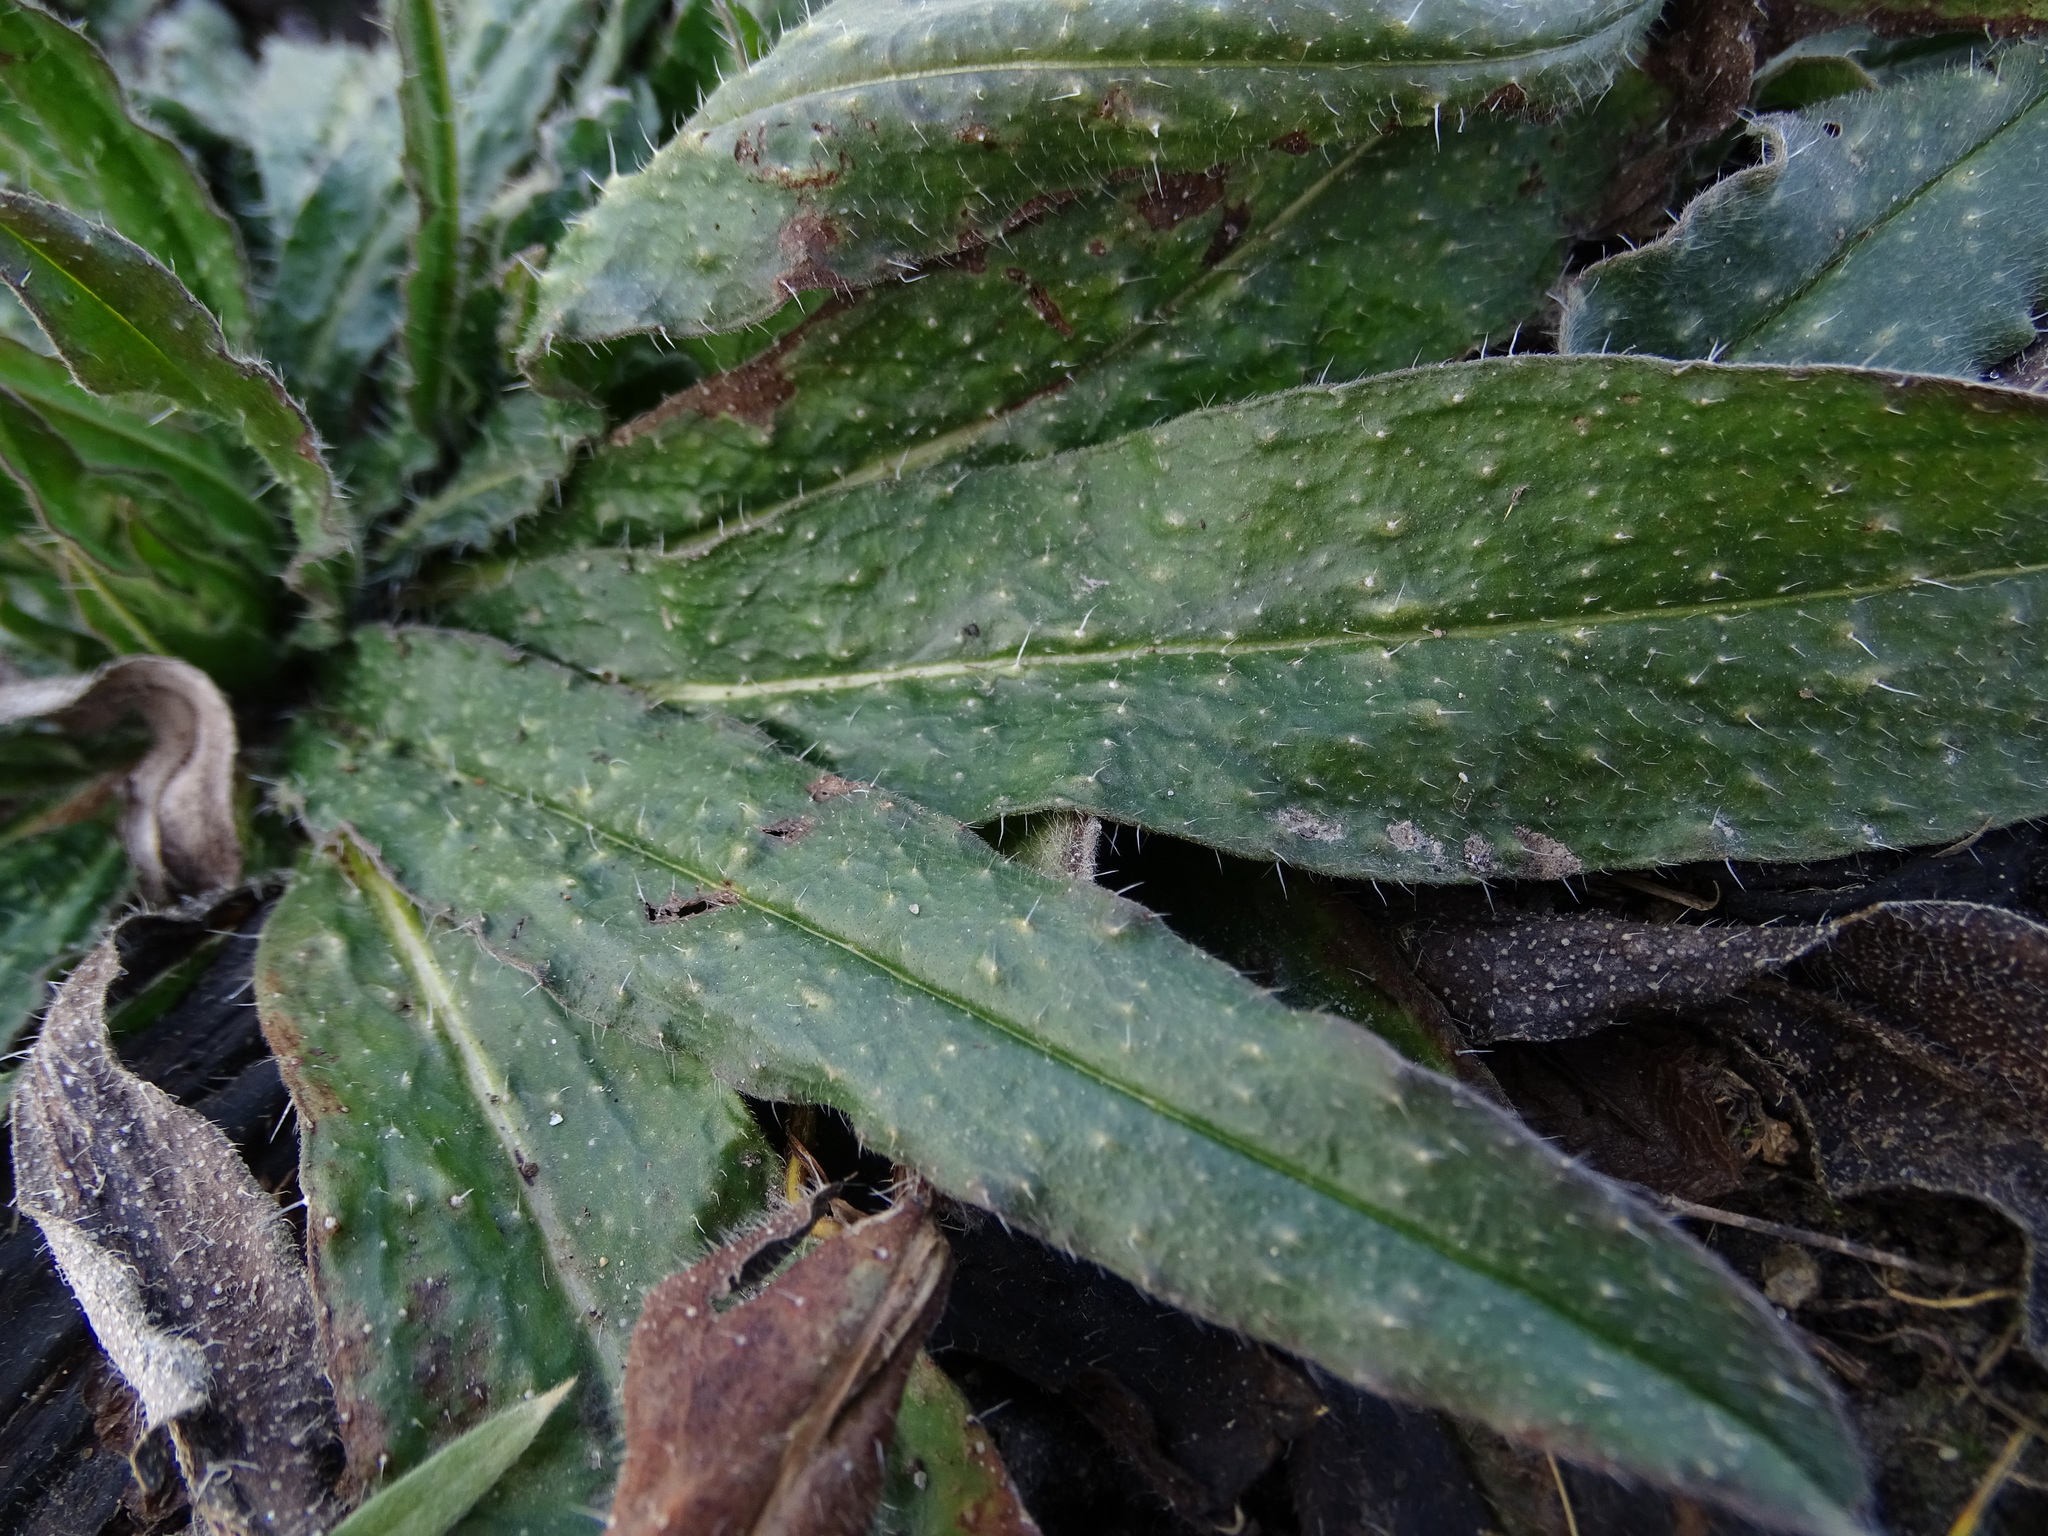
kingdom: Plantae
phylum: Tracheophyta
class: Magnoliopsida
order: Boraginales
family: Boraginaceae
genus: Echium
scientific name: Echium vulgare
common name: Common viper's bugloss
